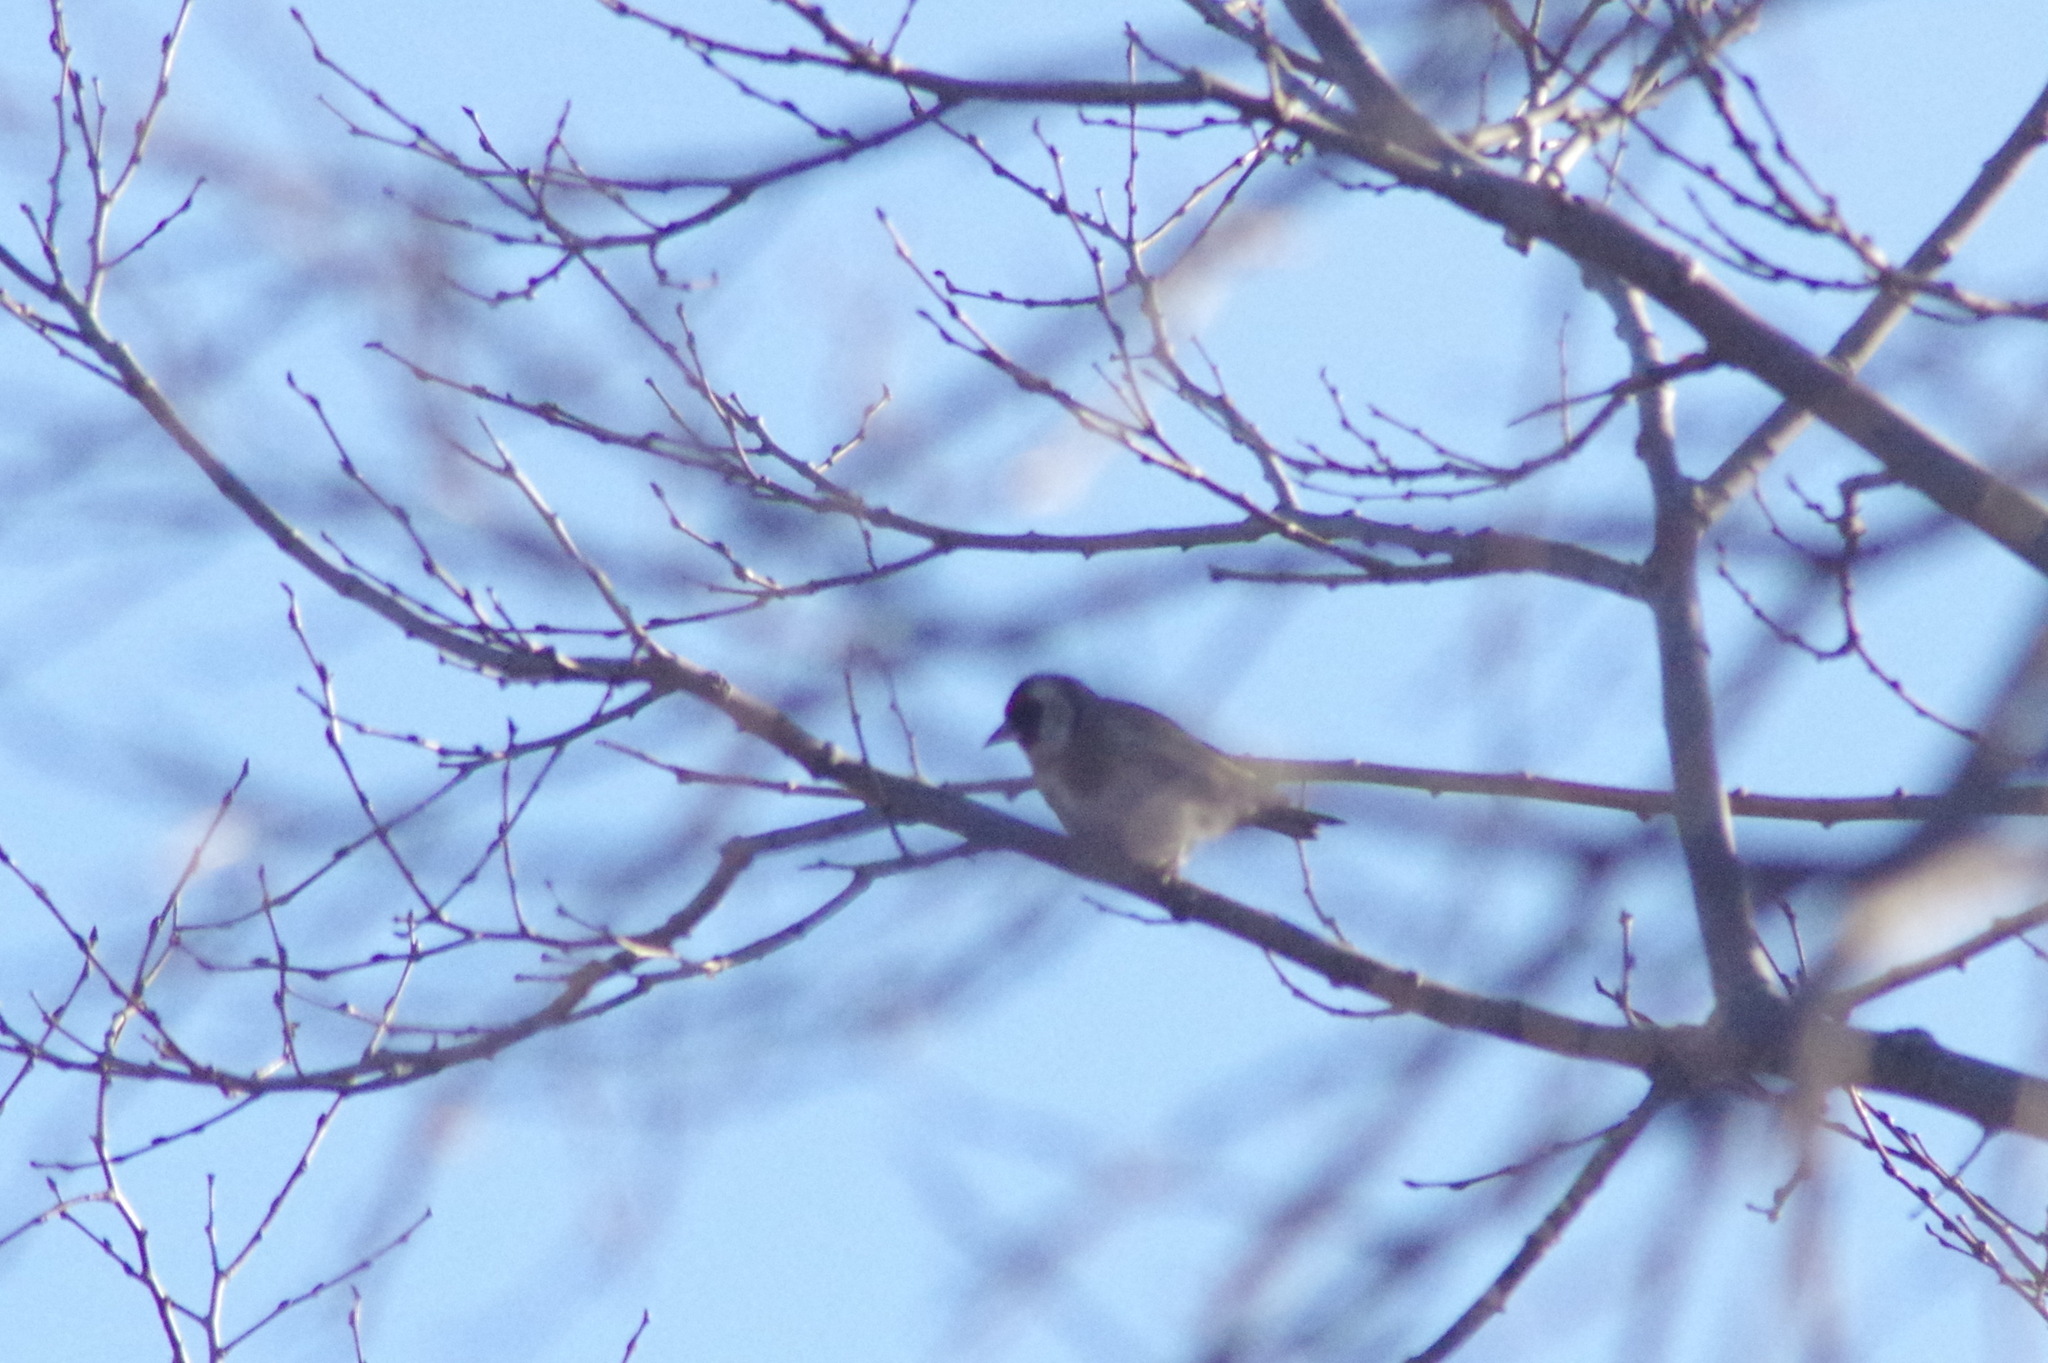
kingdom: Animalia
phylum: Chordata
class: Aves
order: Passeriformes
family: Fringillidae
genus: Carduelis
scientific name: Carduelis carduelis
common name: European goldfinch
